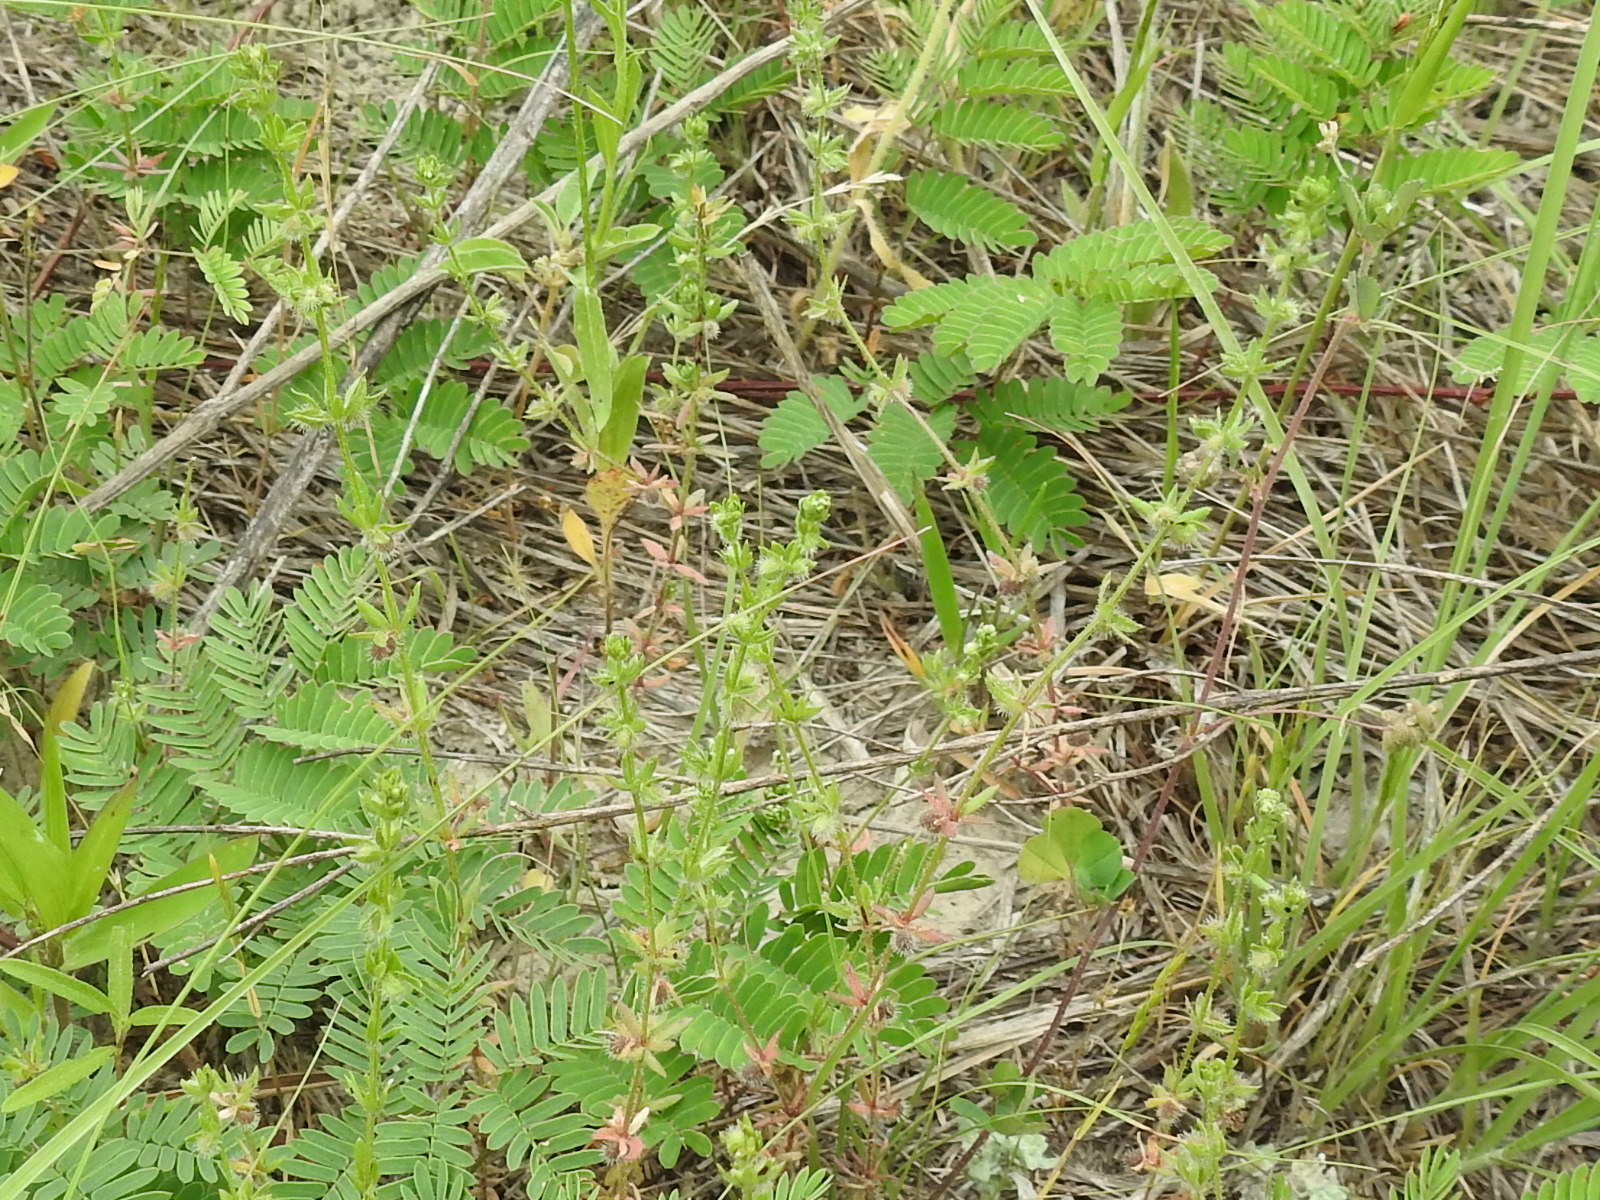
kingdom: Plantae
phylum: Tracheophyta
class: Magnoliopsida
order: Gentianales
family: Rubiaceae
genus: Galium
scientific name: Galium virgatum
